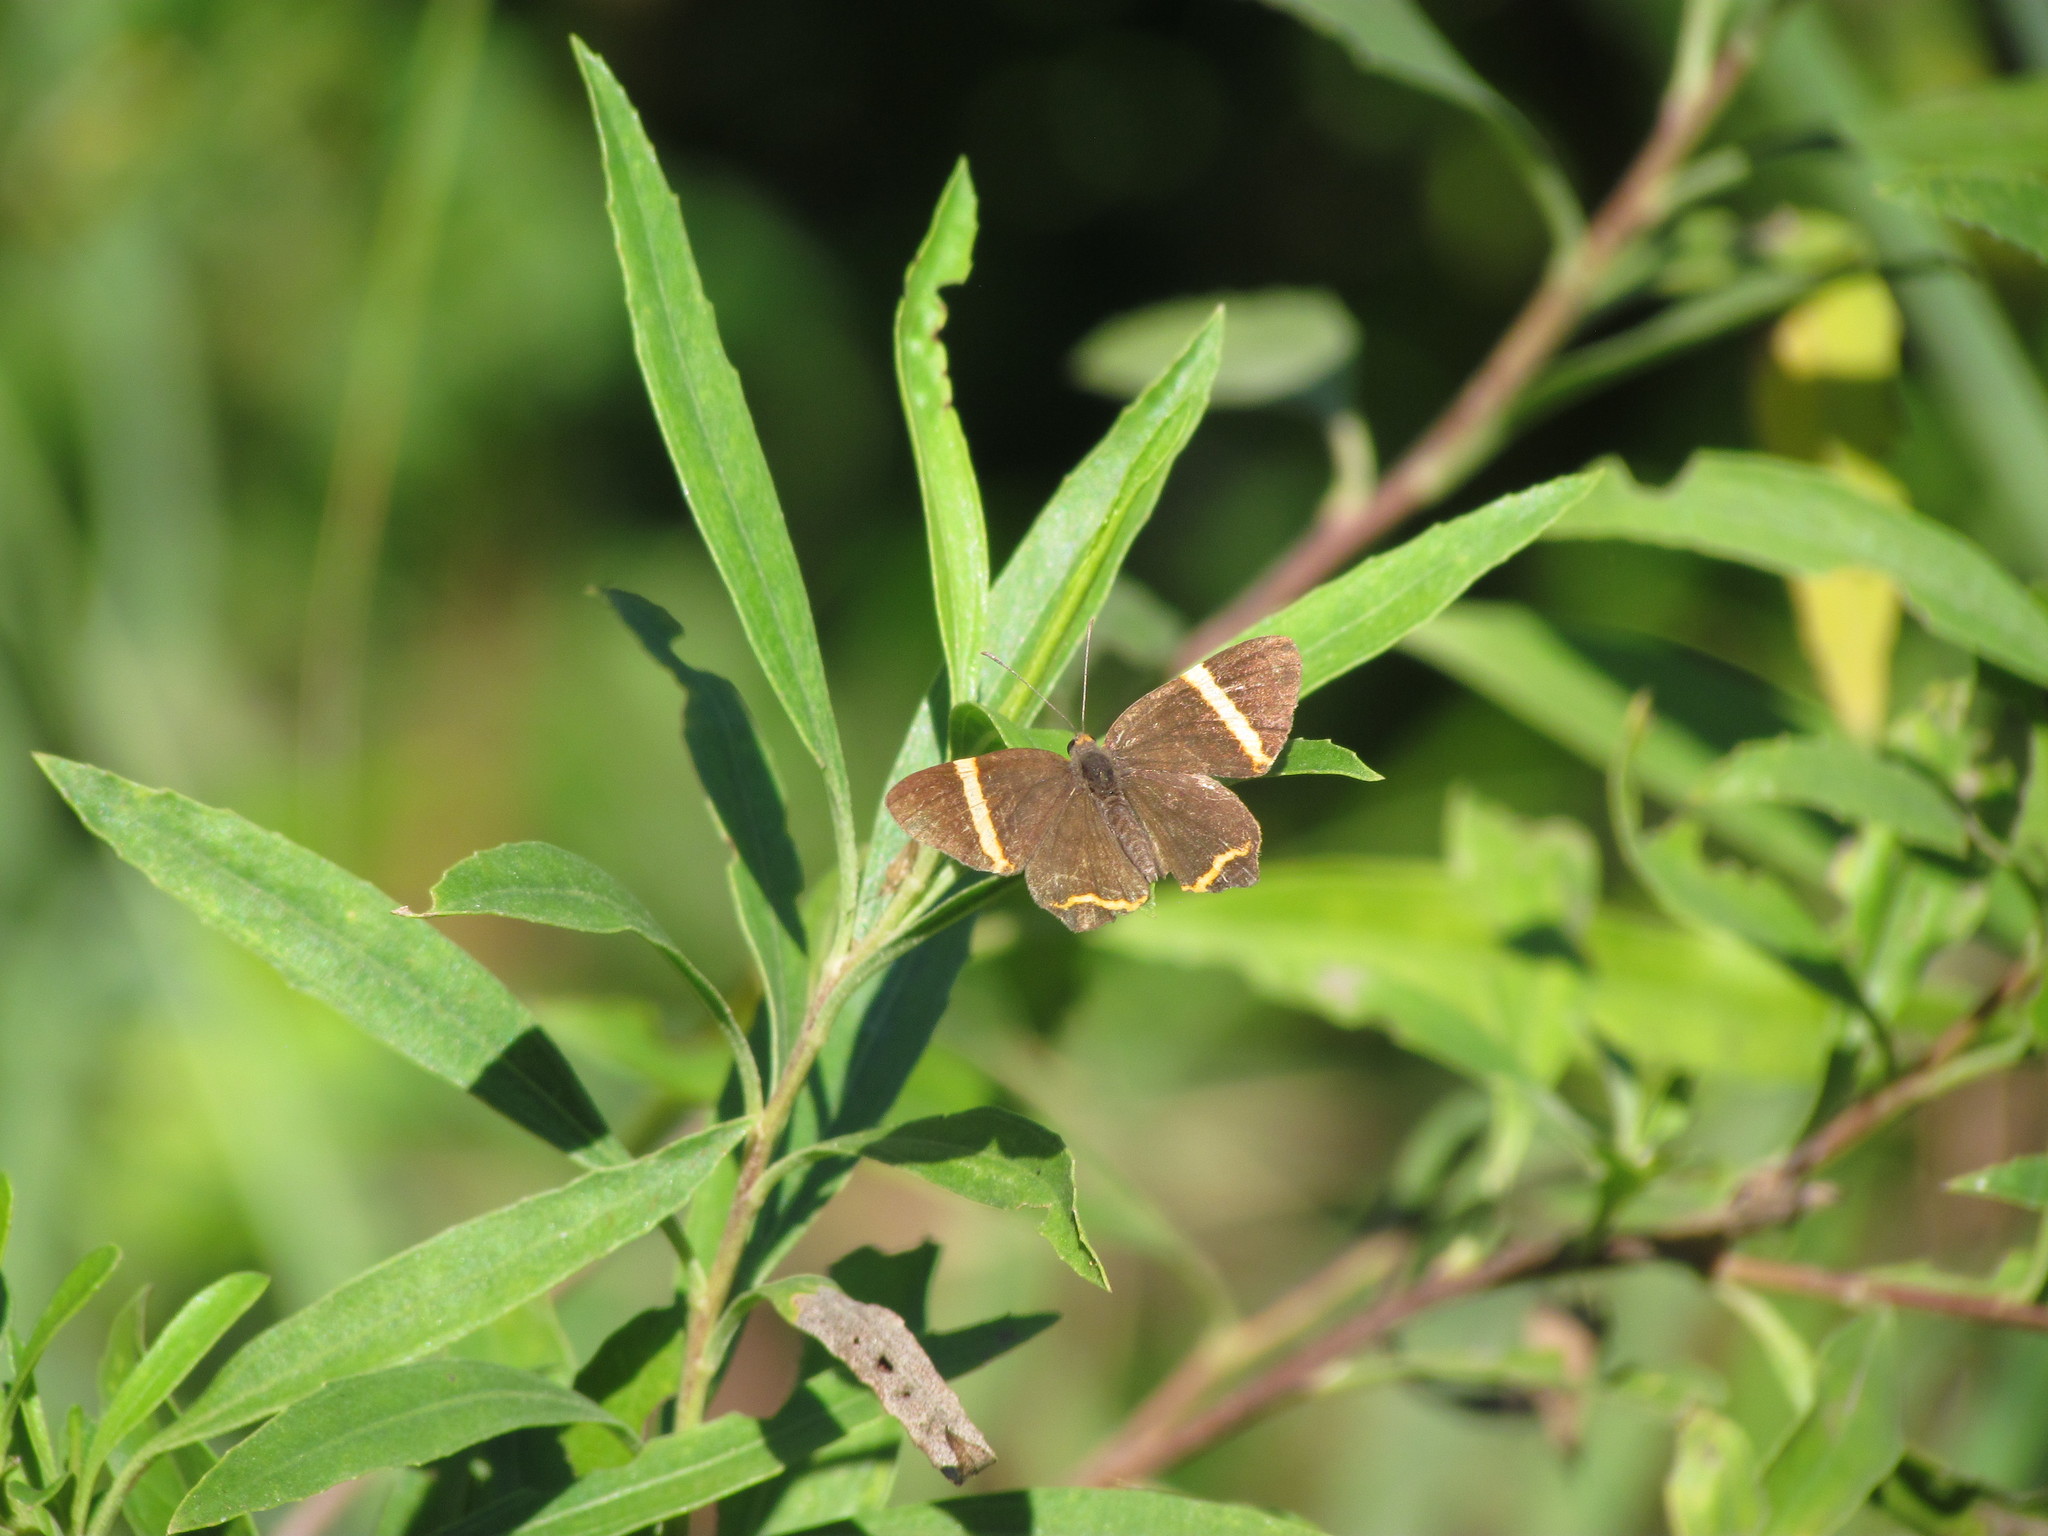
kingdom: Animalia
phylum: Arthropoda
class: Insecta
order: Lepidoptera
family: Riodinidae
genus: Riodina
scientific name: Riodina lysippoides
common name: Little dancer metalmark
